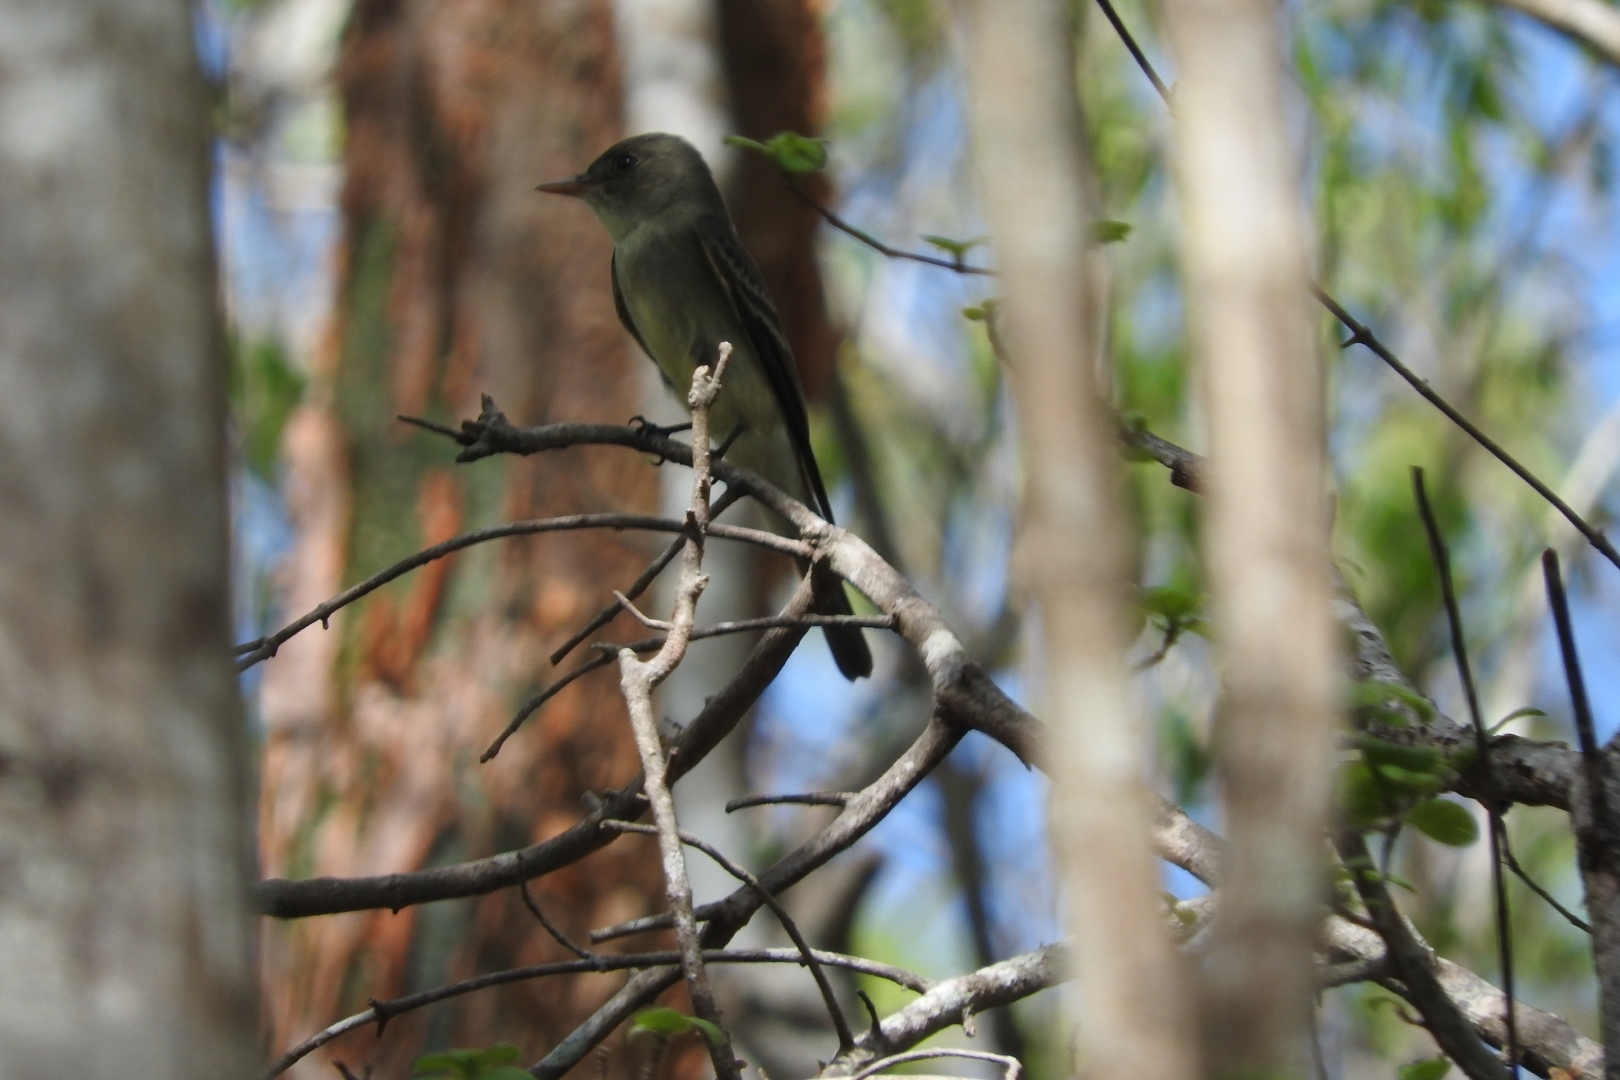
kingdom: Animalia
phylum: Chordata
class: Aves
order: Passeriformes
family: Tyrannidae
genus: Contopus
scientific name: Contopus cinereus
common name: Tropical pewee
